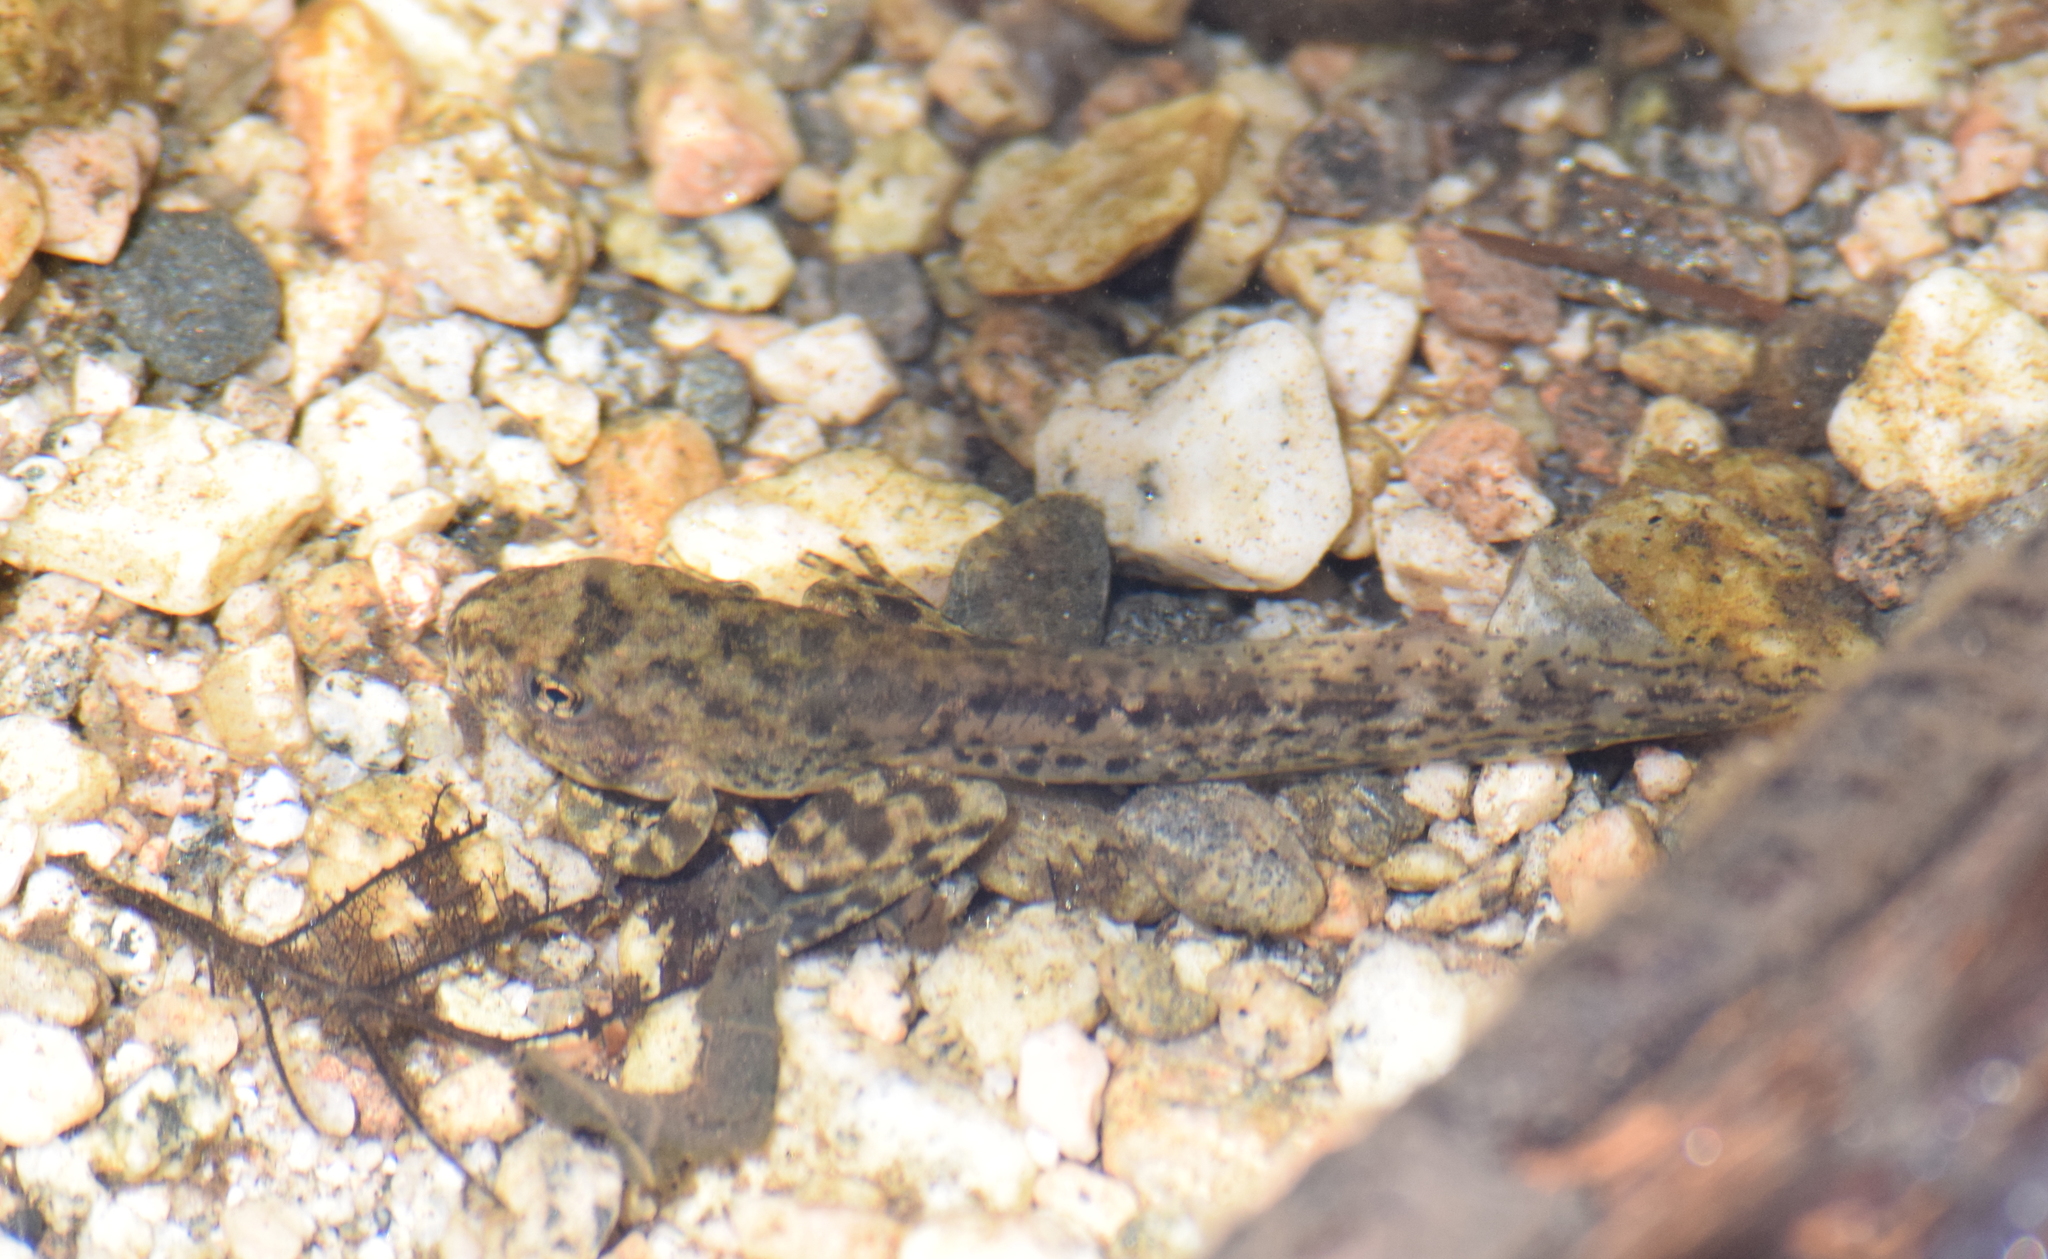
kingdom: Animalia
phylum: Chordata
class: Amphibia
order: Anura
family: Hylidae
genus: Pseudacris
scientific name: Pseudacris cadaverina
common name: California chorus frog
